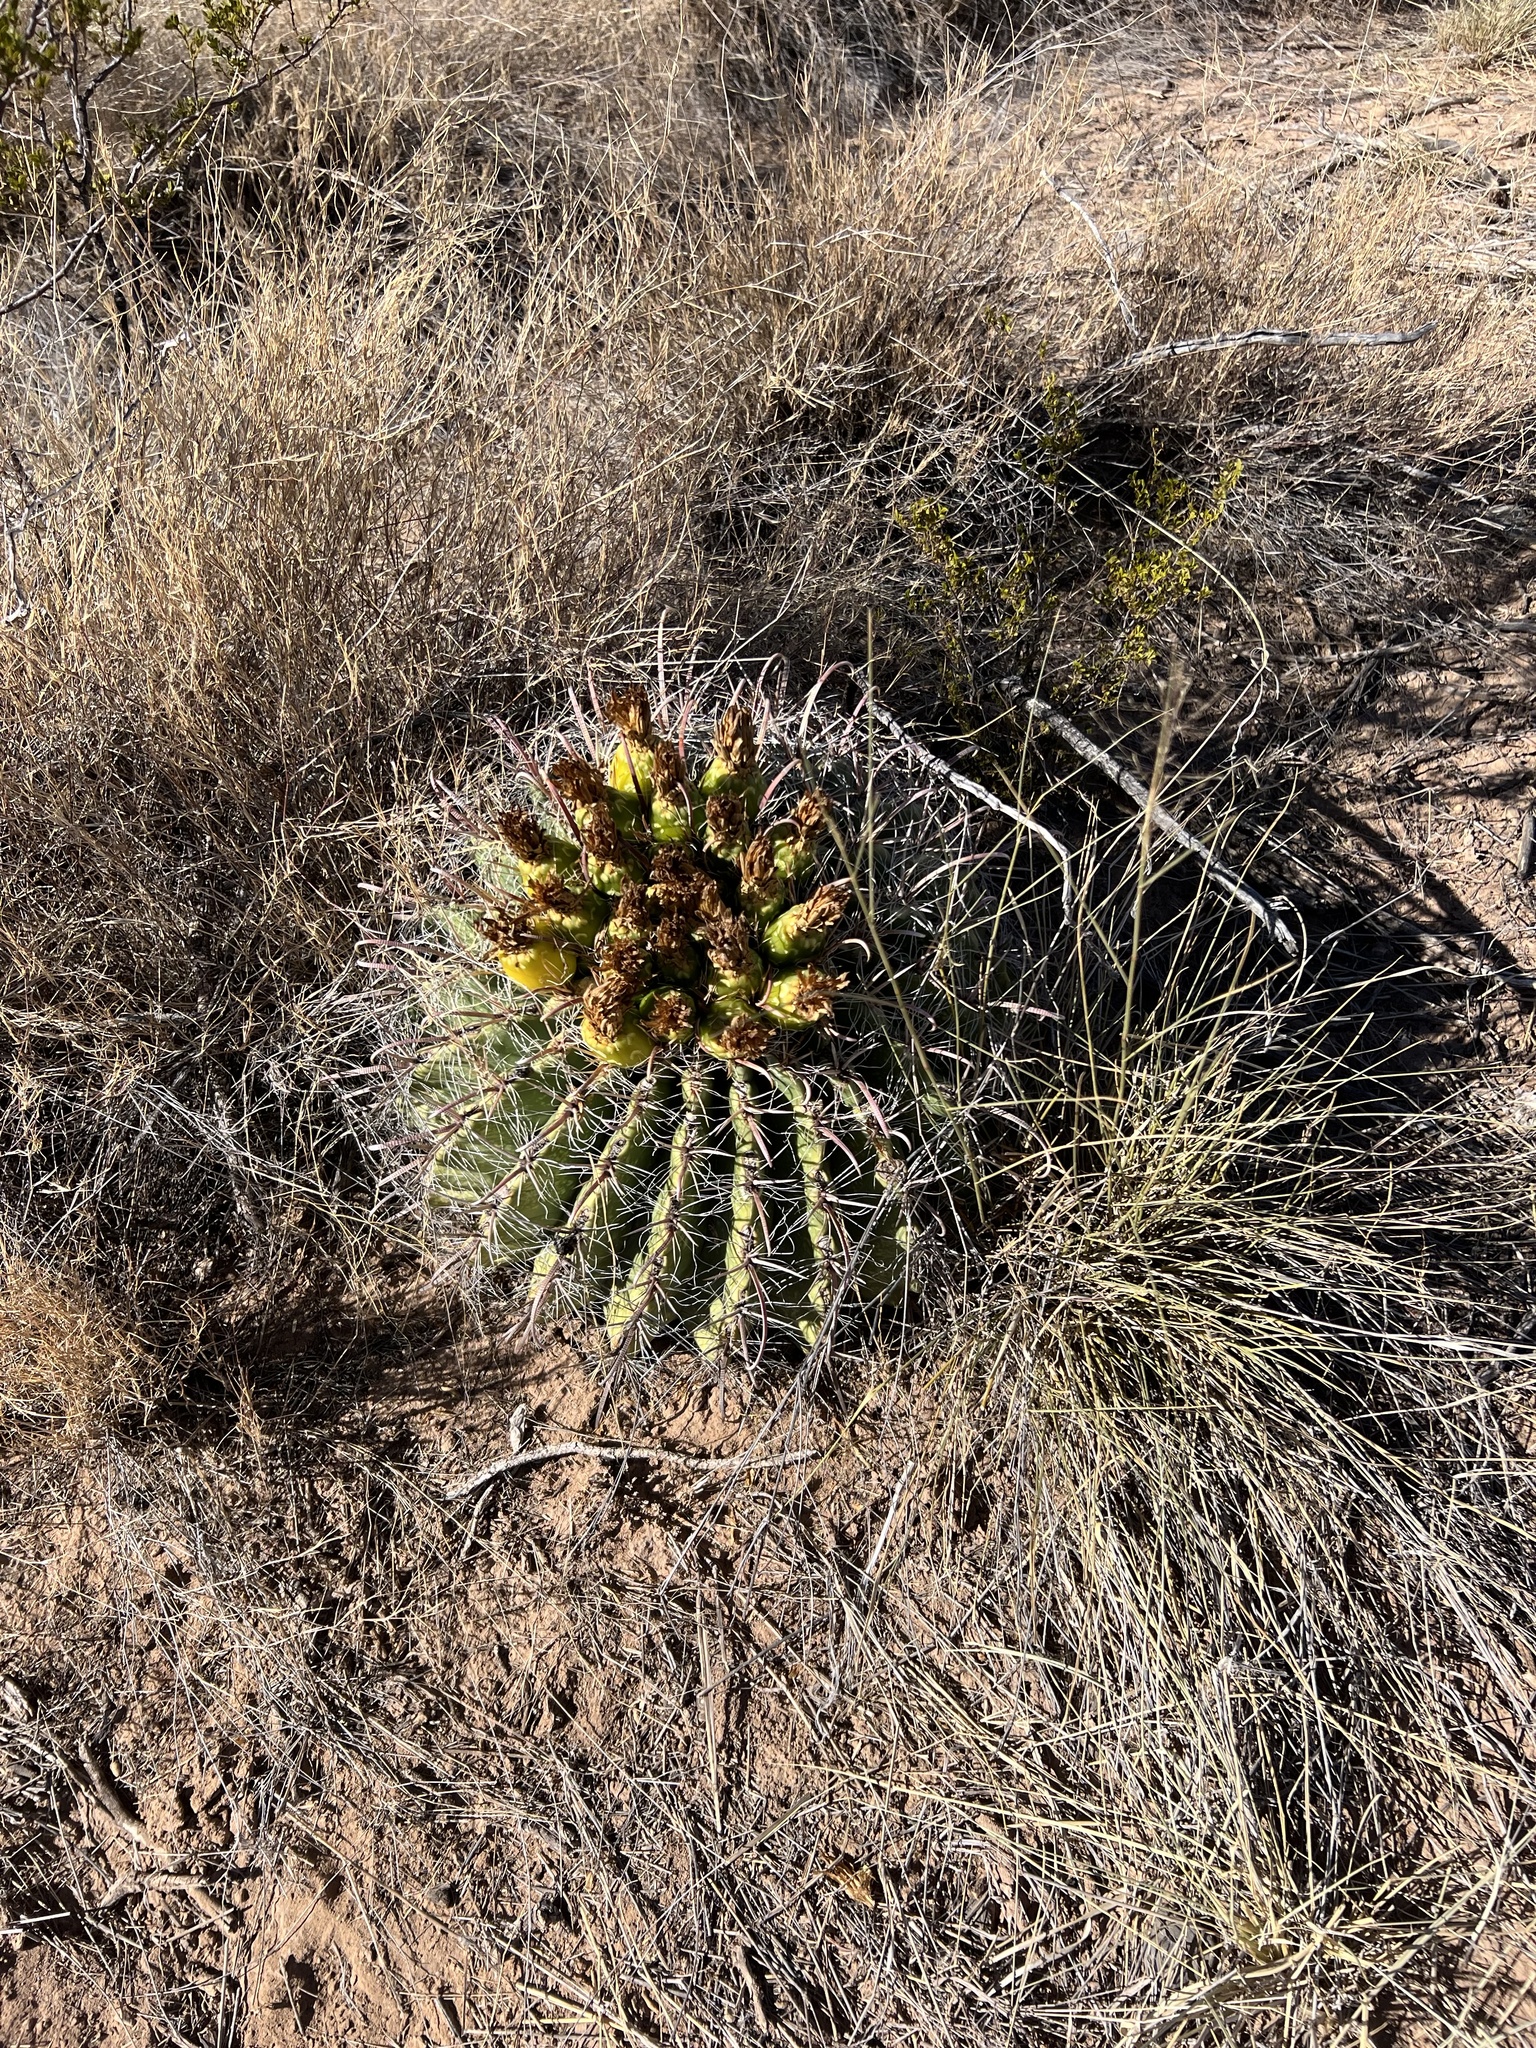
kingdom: Plantae
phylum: Tracheophyta
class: Magnoliopsida
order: Caryophyllales
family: Cactaceae
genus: Ferocactus
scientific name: Ferocactus wislizeni
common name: Candy barrel cactus
